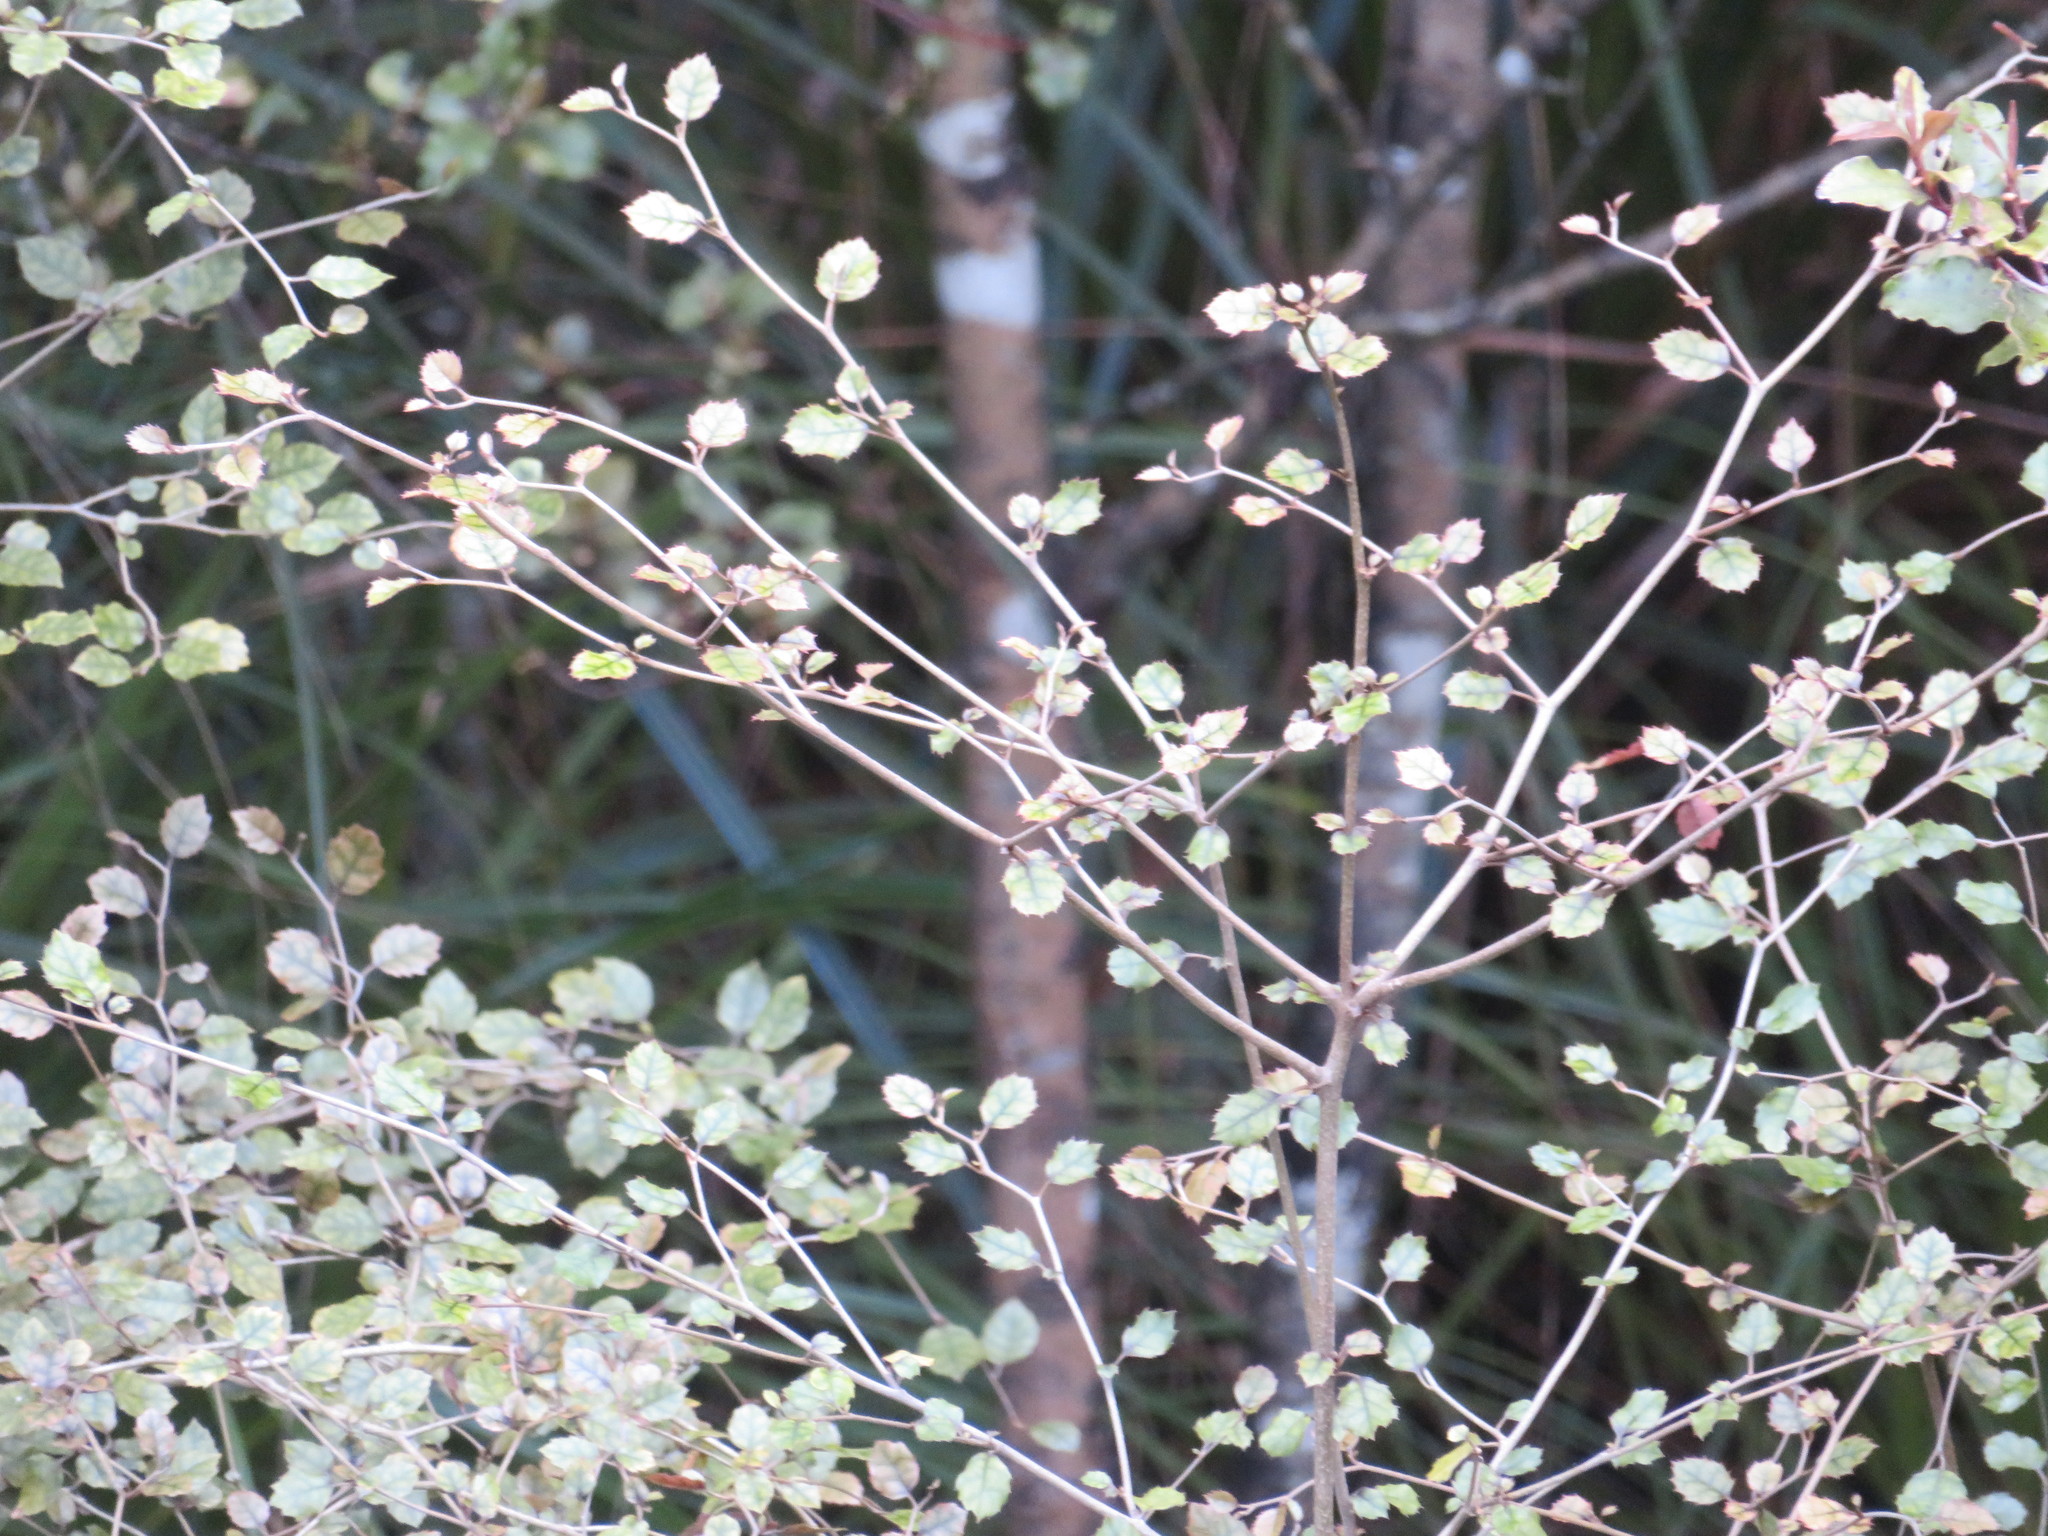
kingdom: Plantae
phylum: Tracheophyta
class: Magnoliopsida
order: Asterales
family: Rousseaceae
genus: Carpodetus
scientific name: Carpodetus serratus
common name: White mapau
